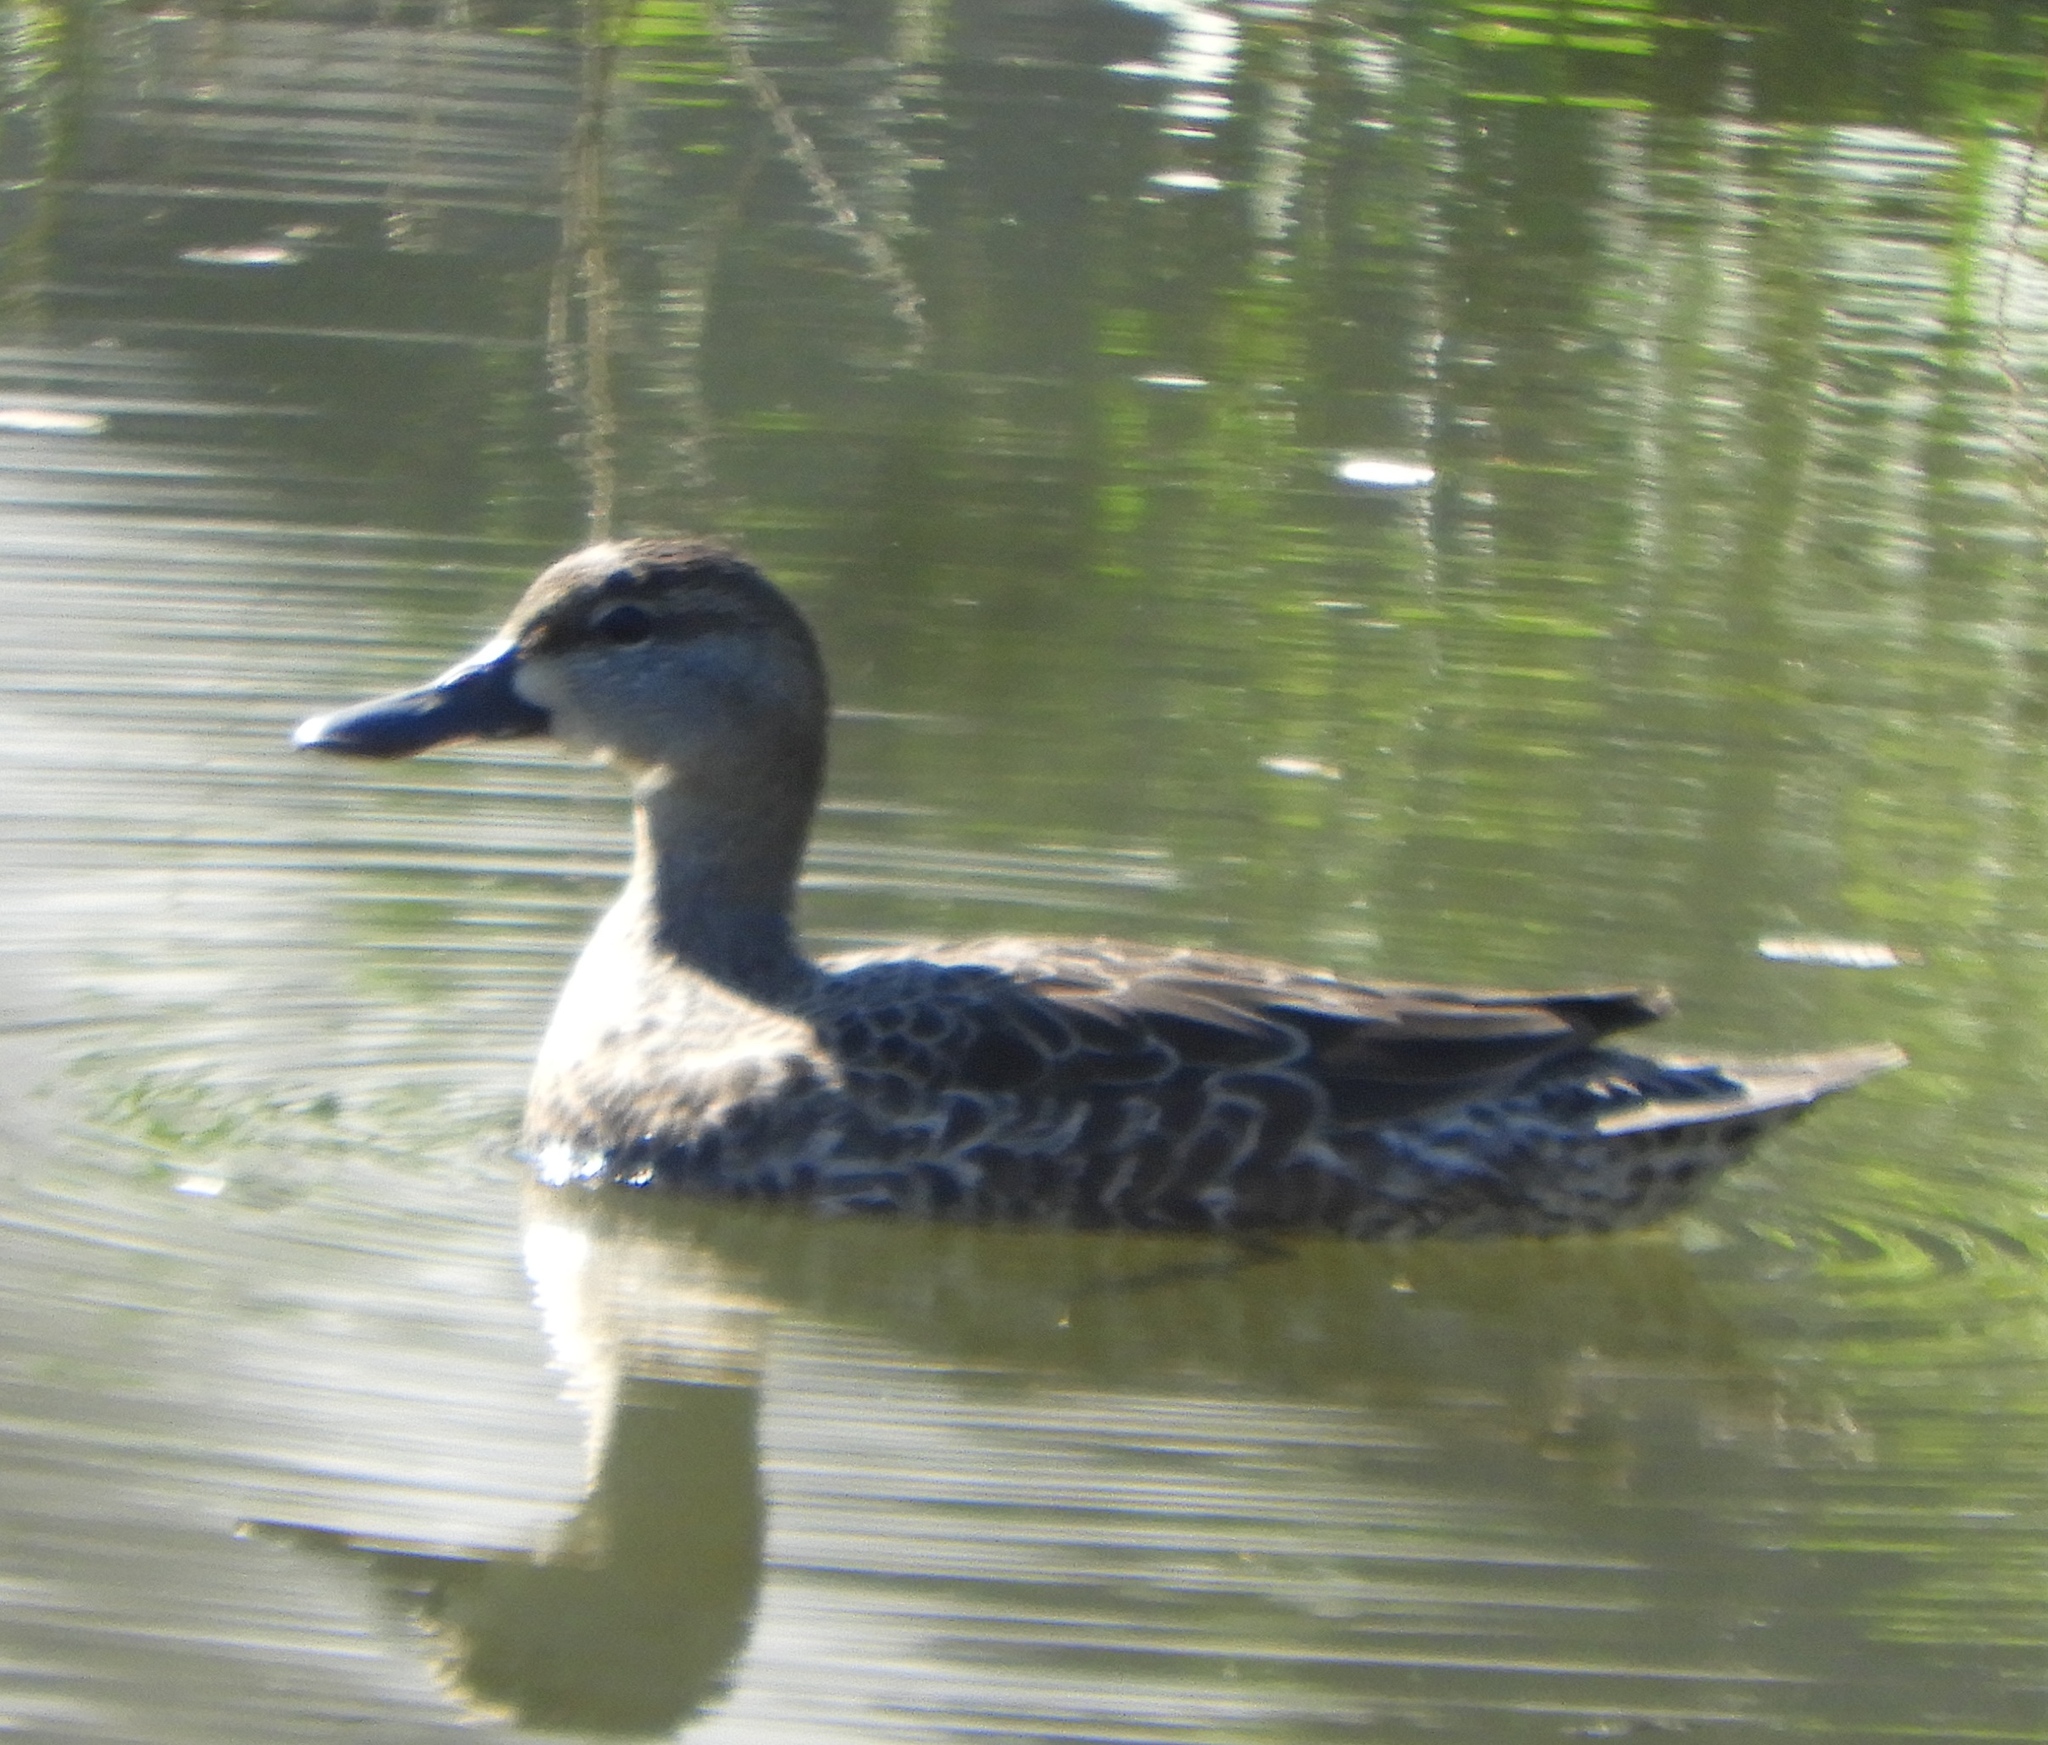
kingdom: Animalia
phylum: Chordata
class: Aves
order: Anseriformes
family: Anatidae
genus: Spatula
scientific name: Spatula discors
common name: Blue-winged teal
